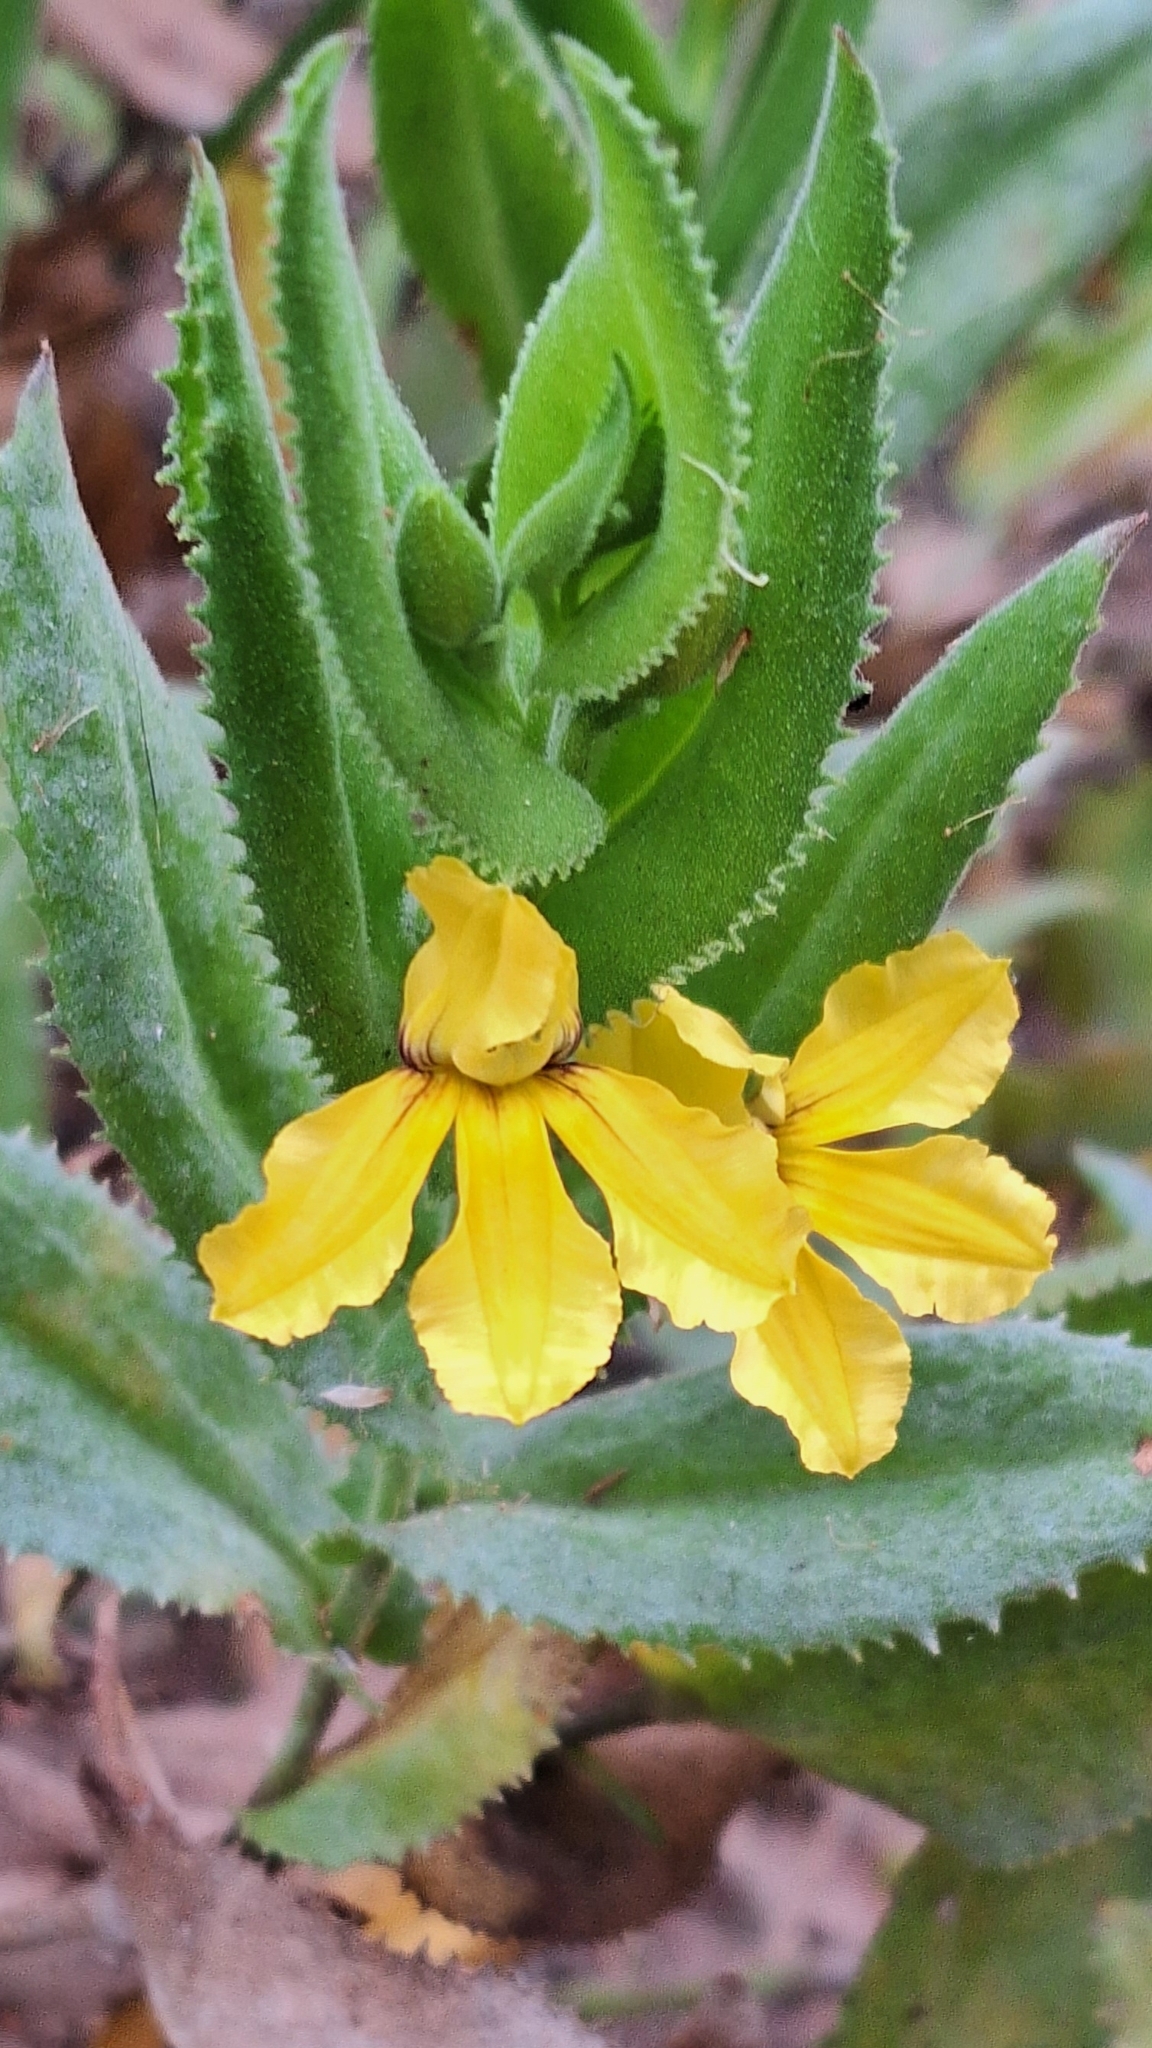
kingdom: Plantae
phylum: Tracheophyta
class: Magnoliopsida
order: Asterales
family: Goodeniaceae
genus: Goodenia
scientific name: Goodenia amplexans
